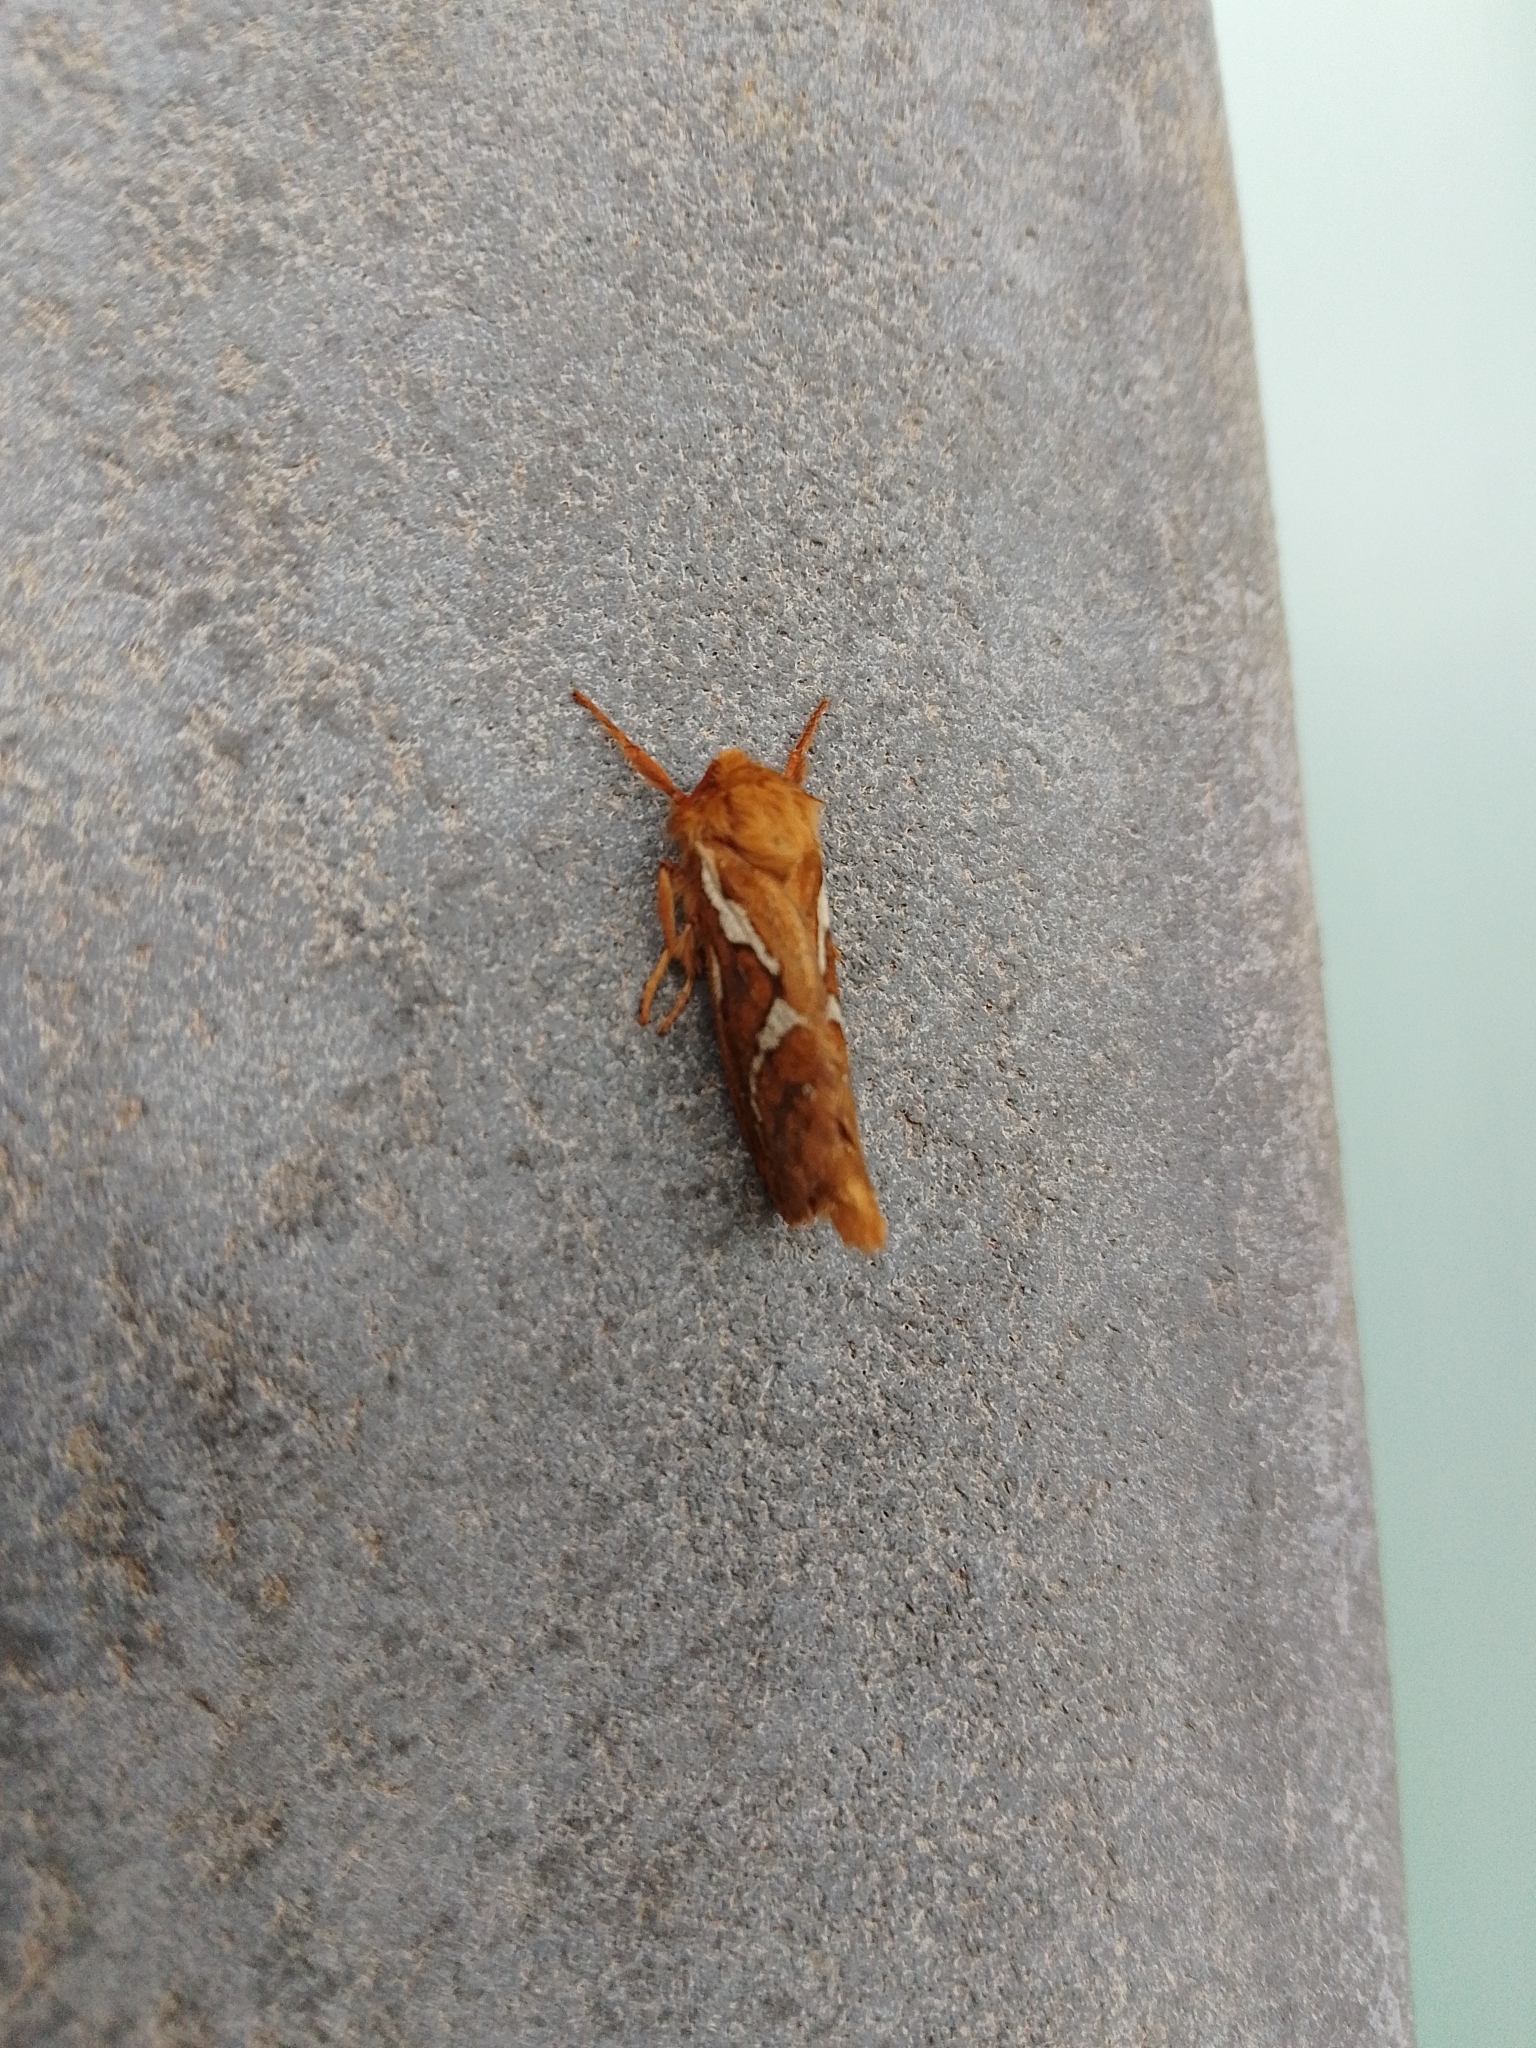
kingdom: Animalia
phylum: Arthropoda
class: Insecta
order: Lepidoptera
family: Hepialidae
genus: Korscheltellus
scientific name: Korscheltellus lupulina
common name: Common swift
